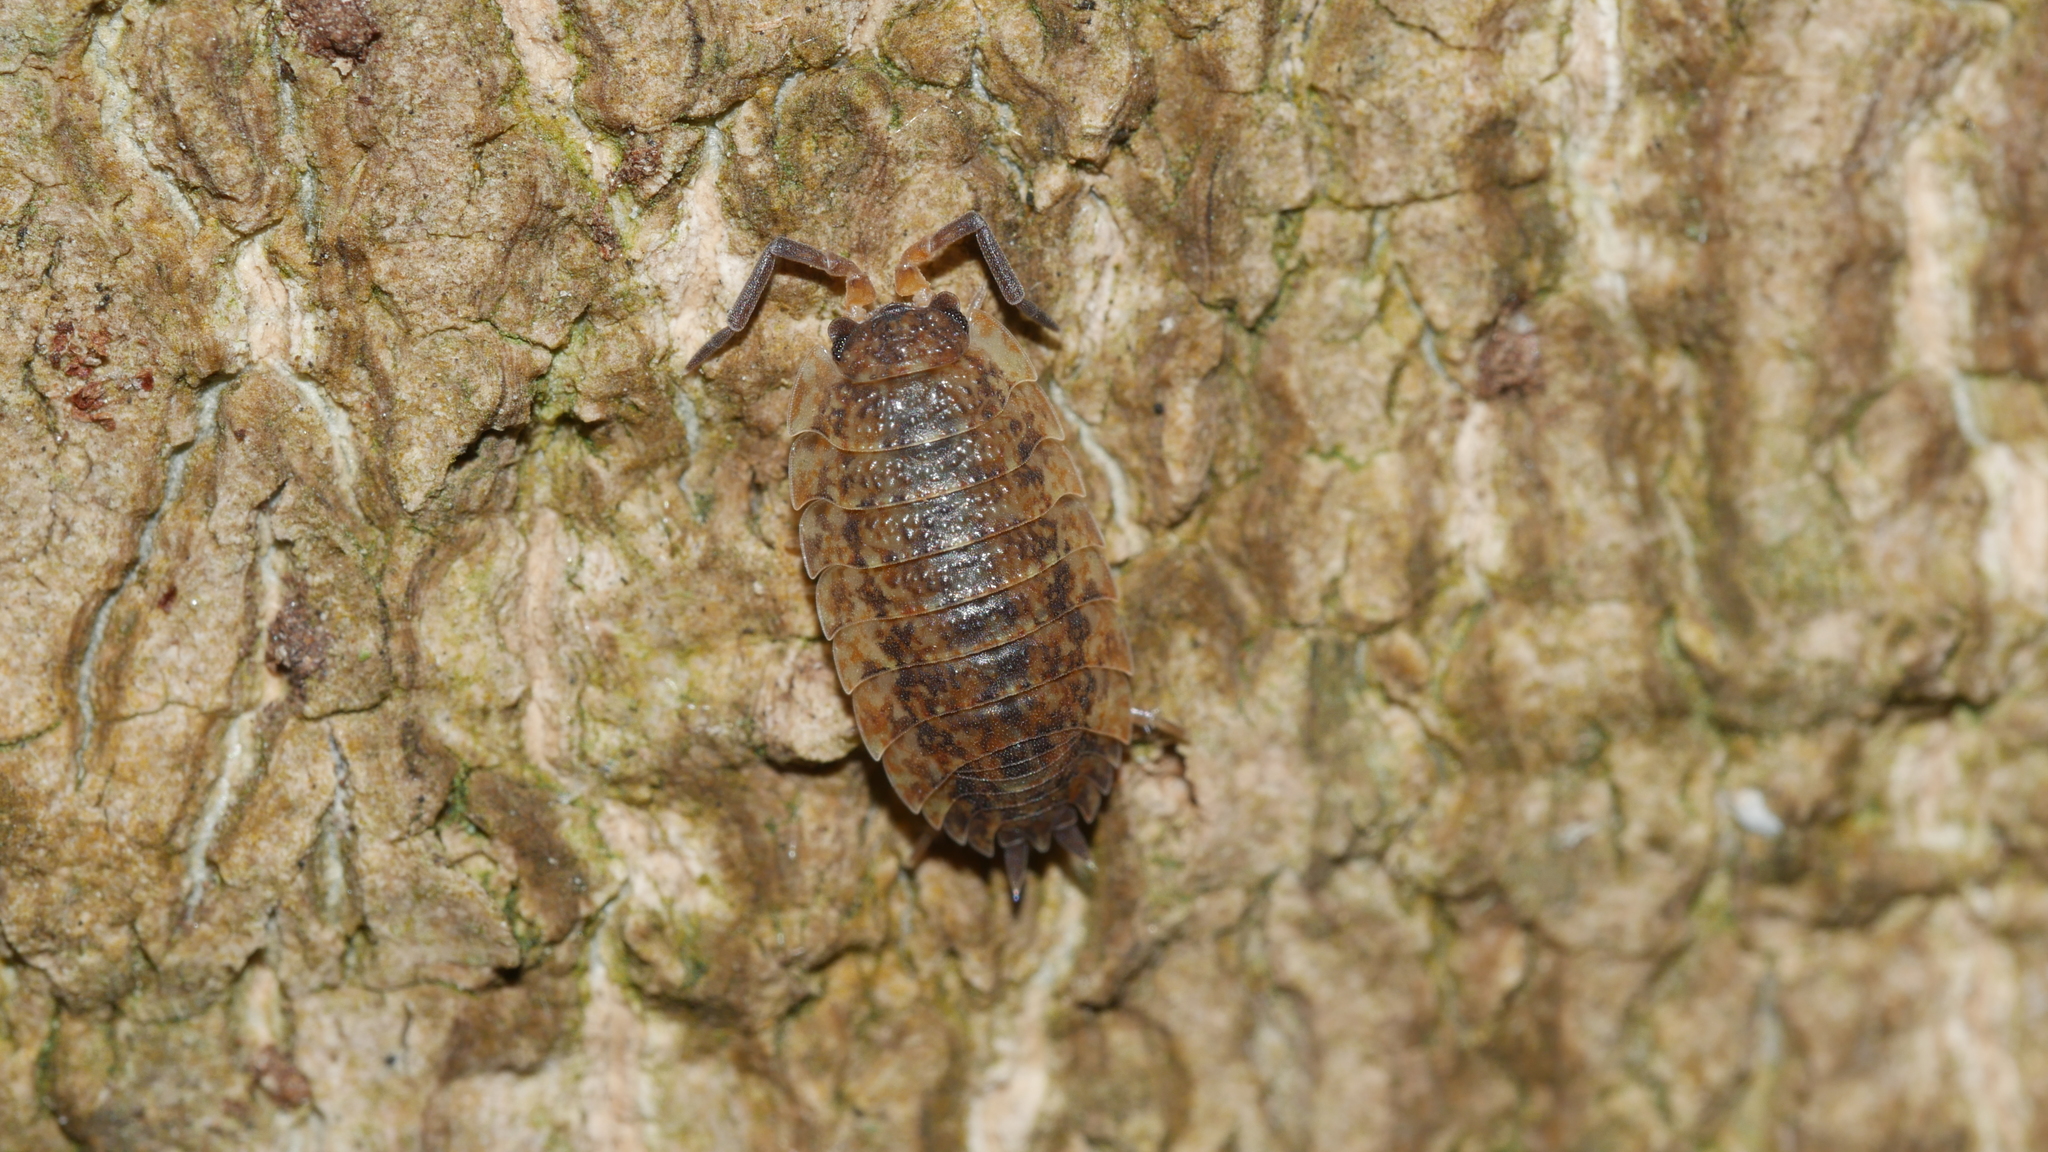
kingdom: Animalia
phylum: Arthropoda
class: Malacostraca
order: Isopoda
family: Porcellionidae
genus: Porcellio
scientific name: Porcellio scaber
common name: Common rough woodlouse
